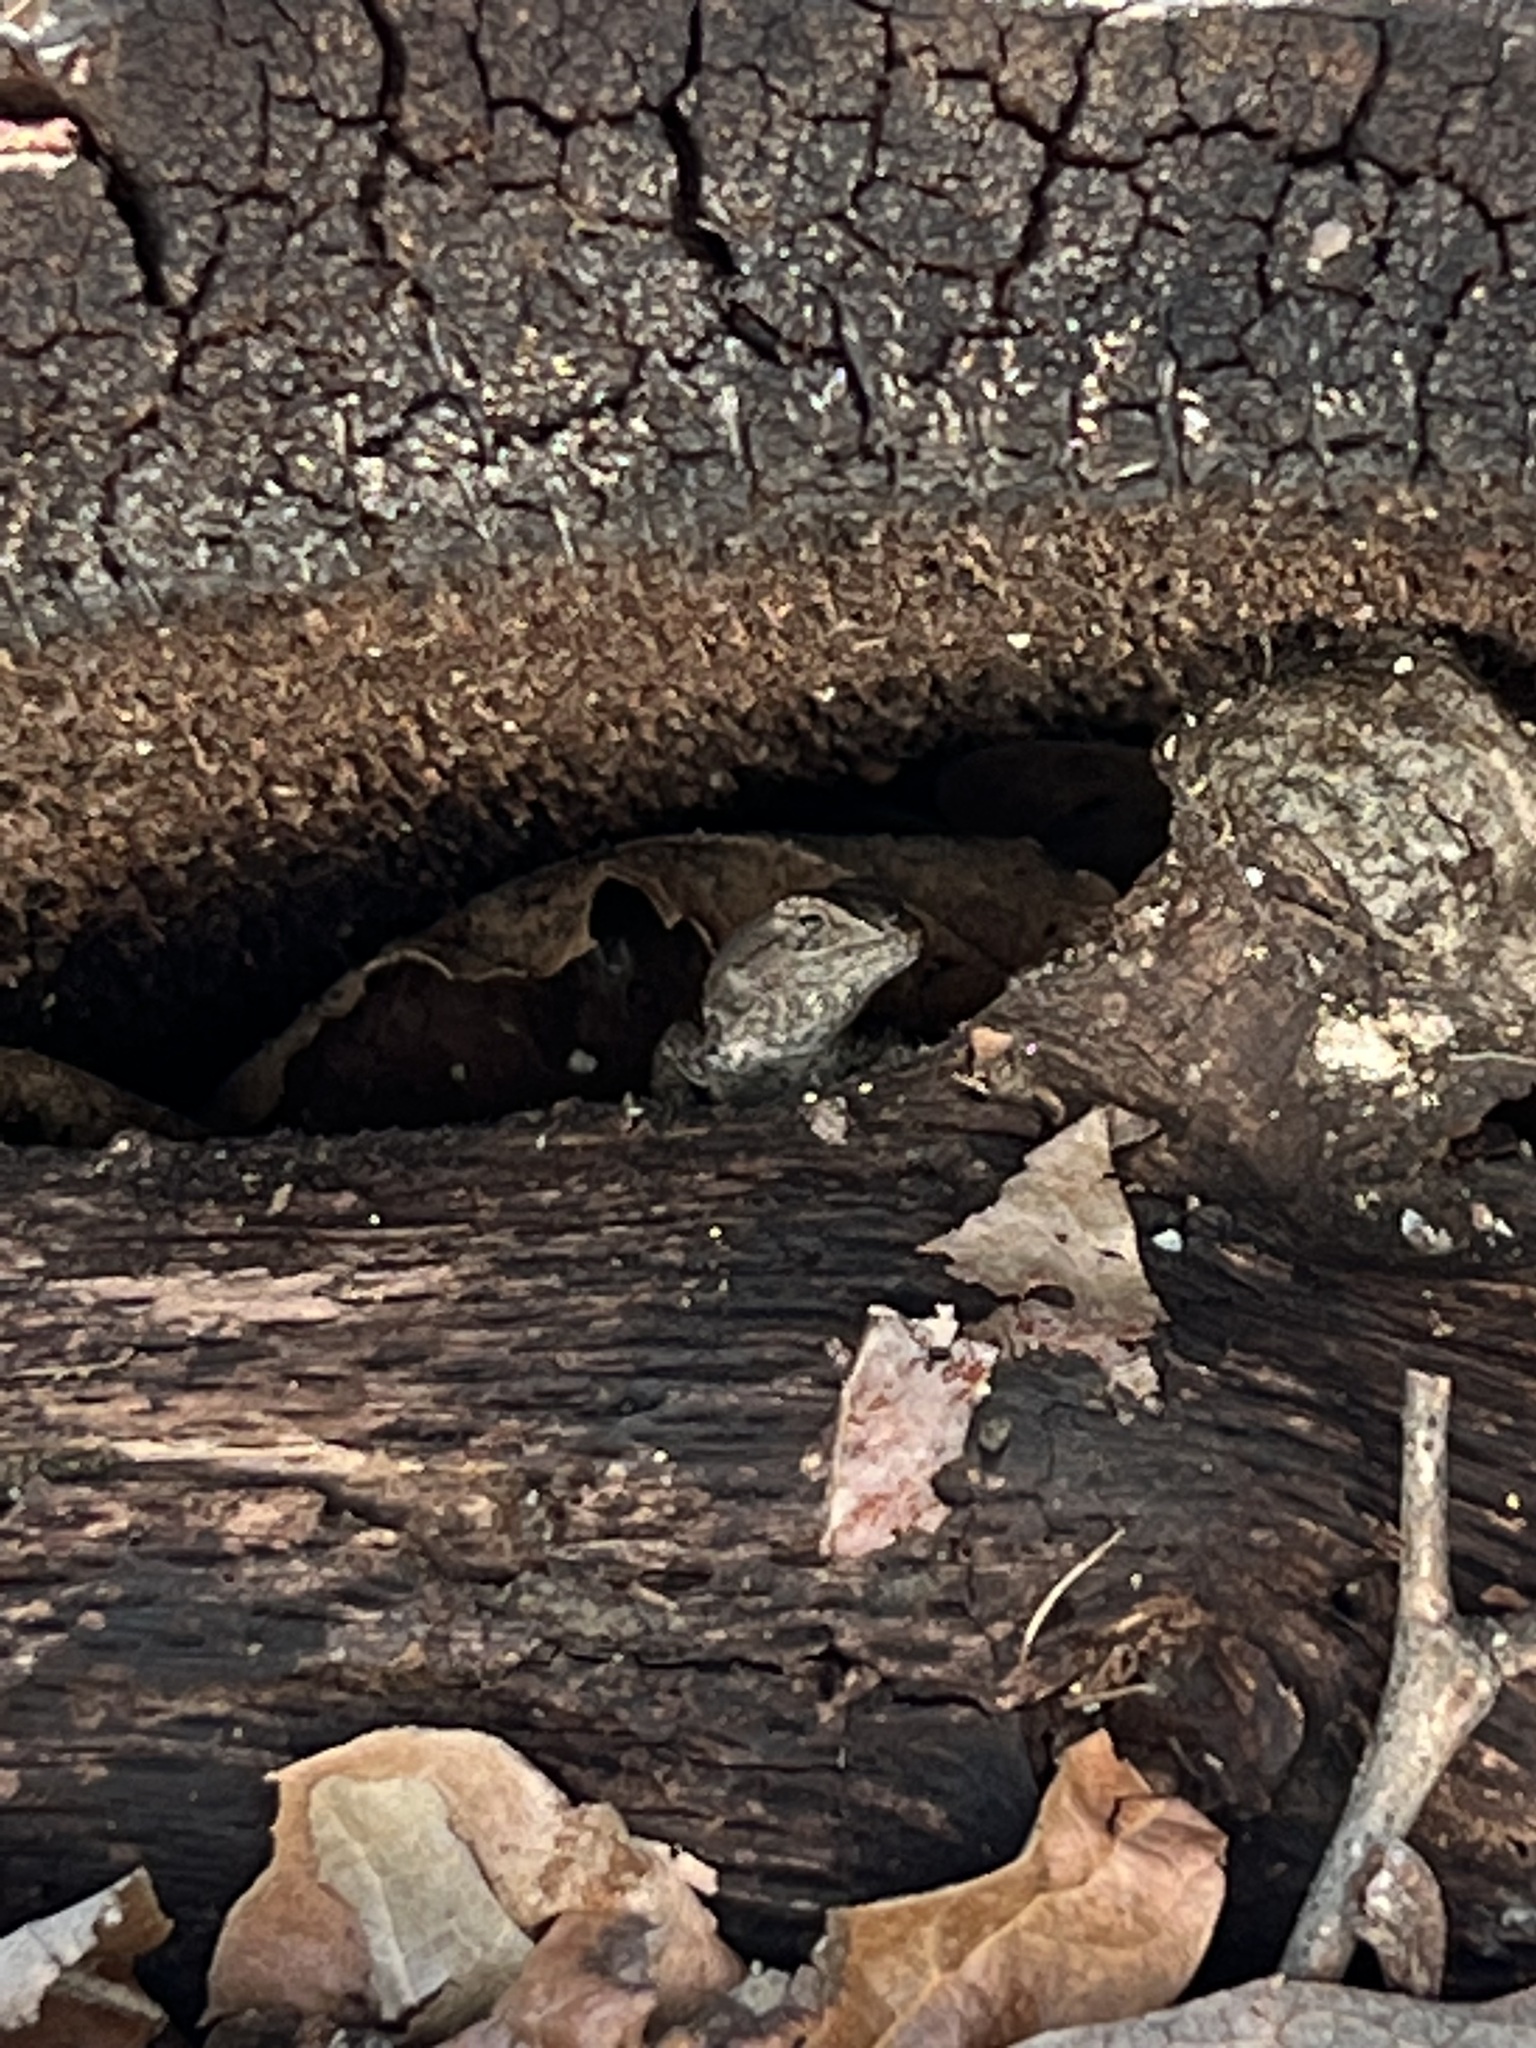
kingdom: Animalia
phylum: Chordata
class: Squamata
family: Phrynosomatidae
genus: Sceloporus
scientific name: Sceloporus occidentalis
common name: Western fence lizard
